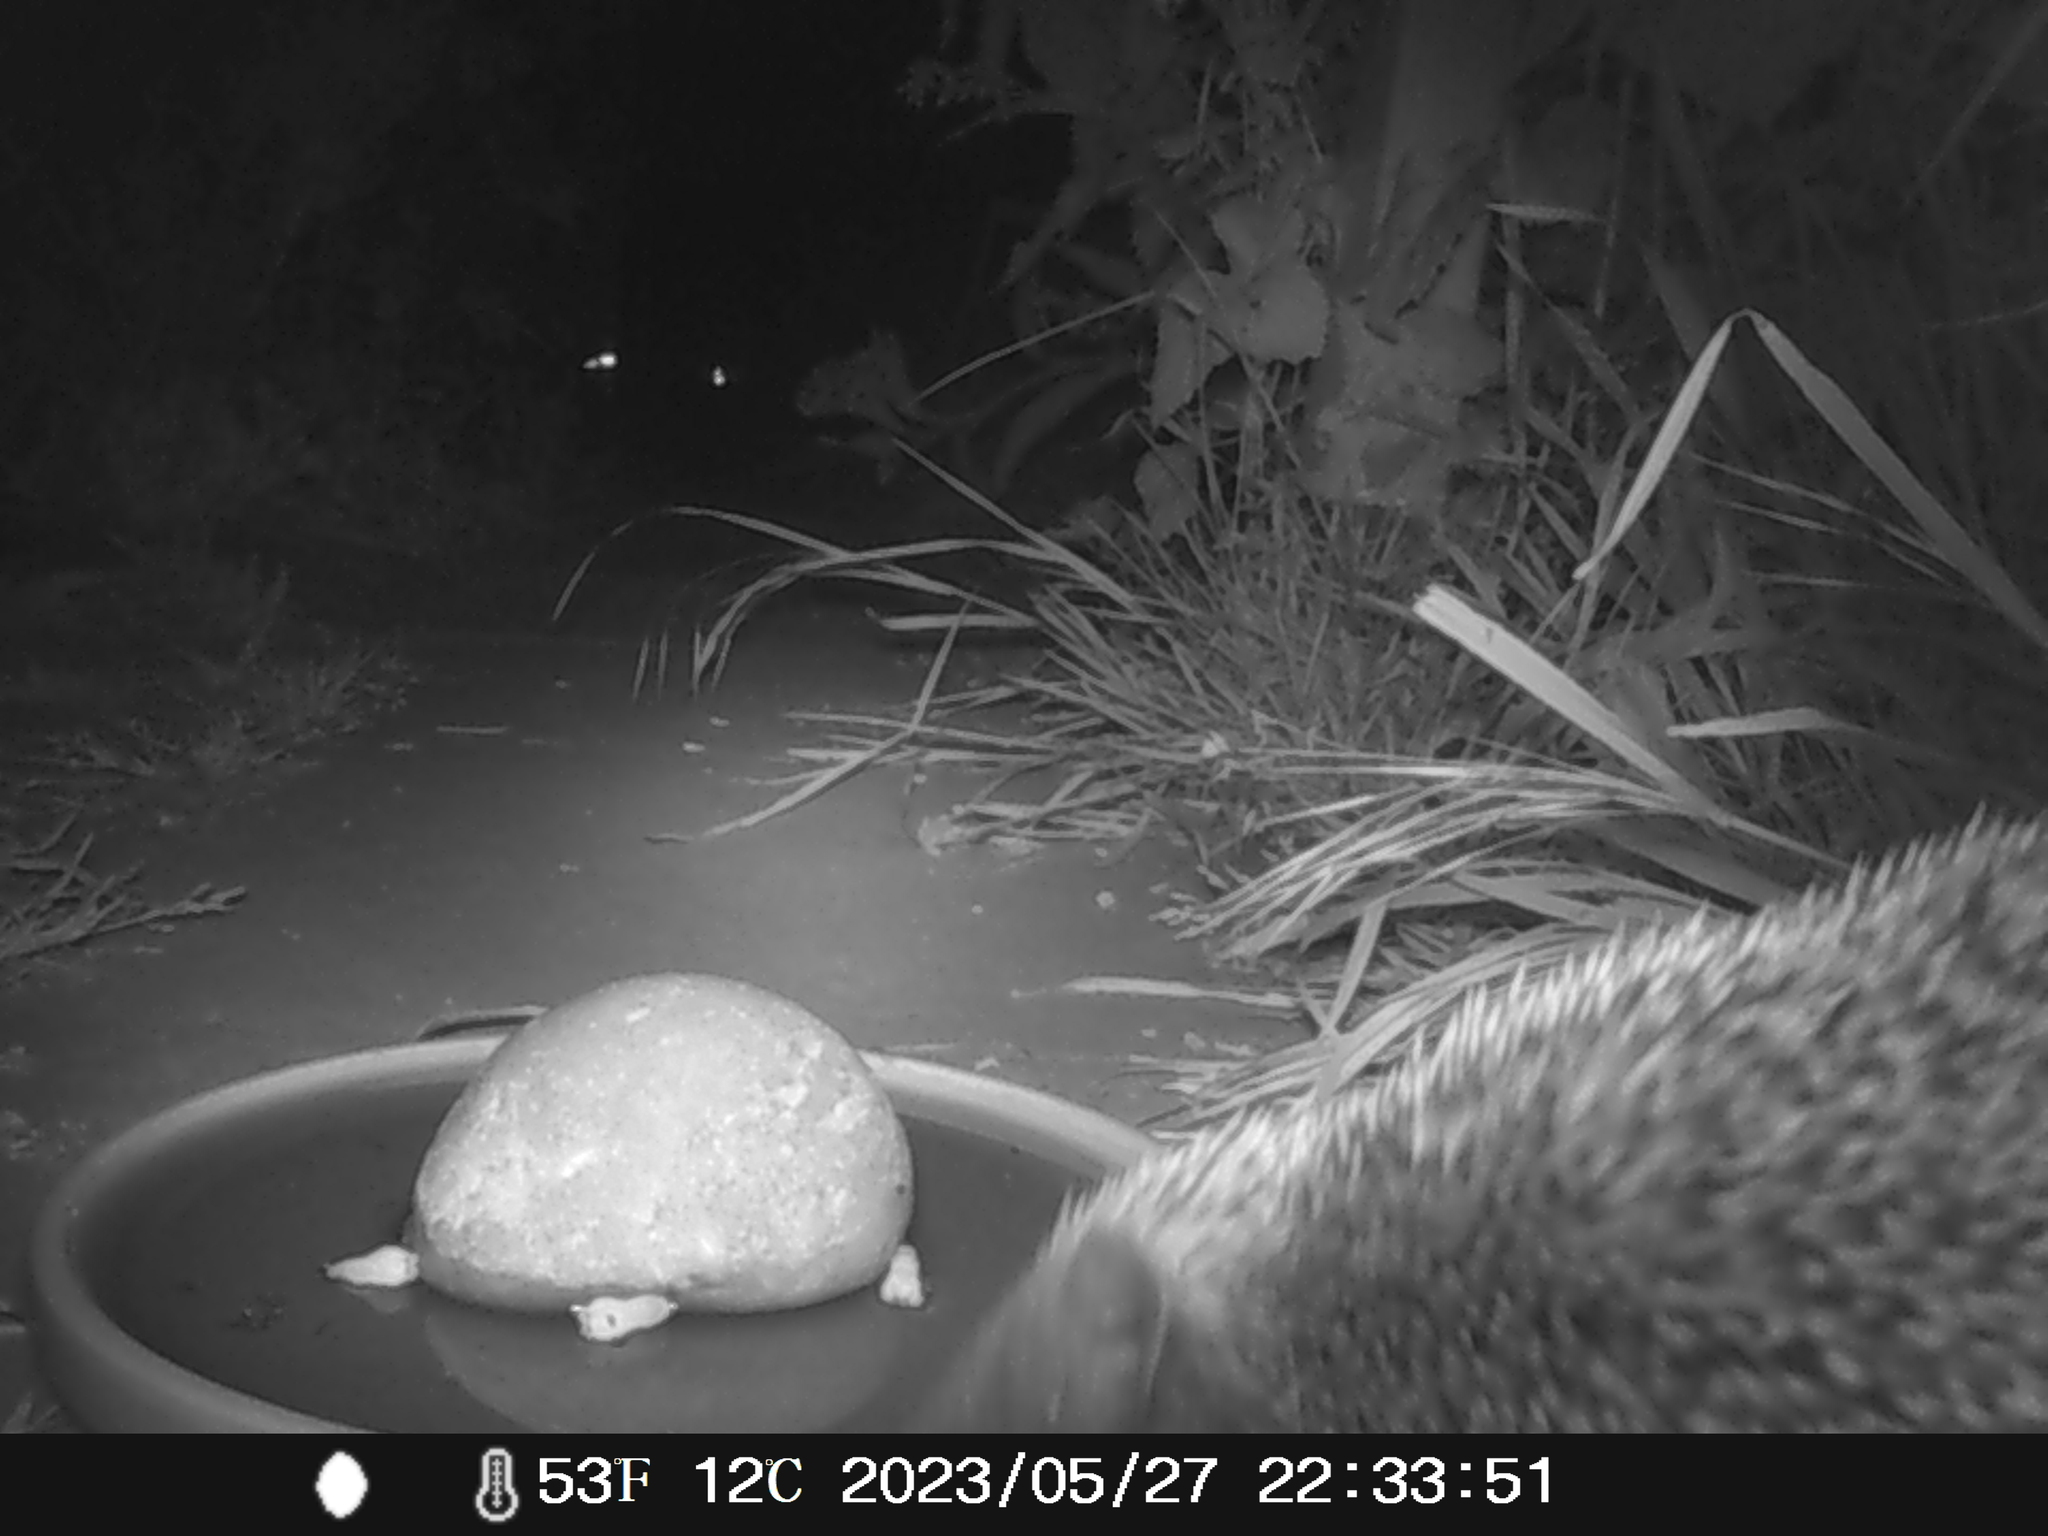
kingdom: Animalia
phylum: Chordata
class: Mammalia
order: Erinaceomorpha
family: Erinaceidae
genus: Erinaceus
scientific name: Erinaceus europaeus
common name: West european hedgehog
